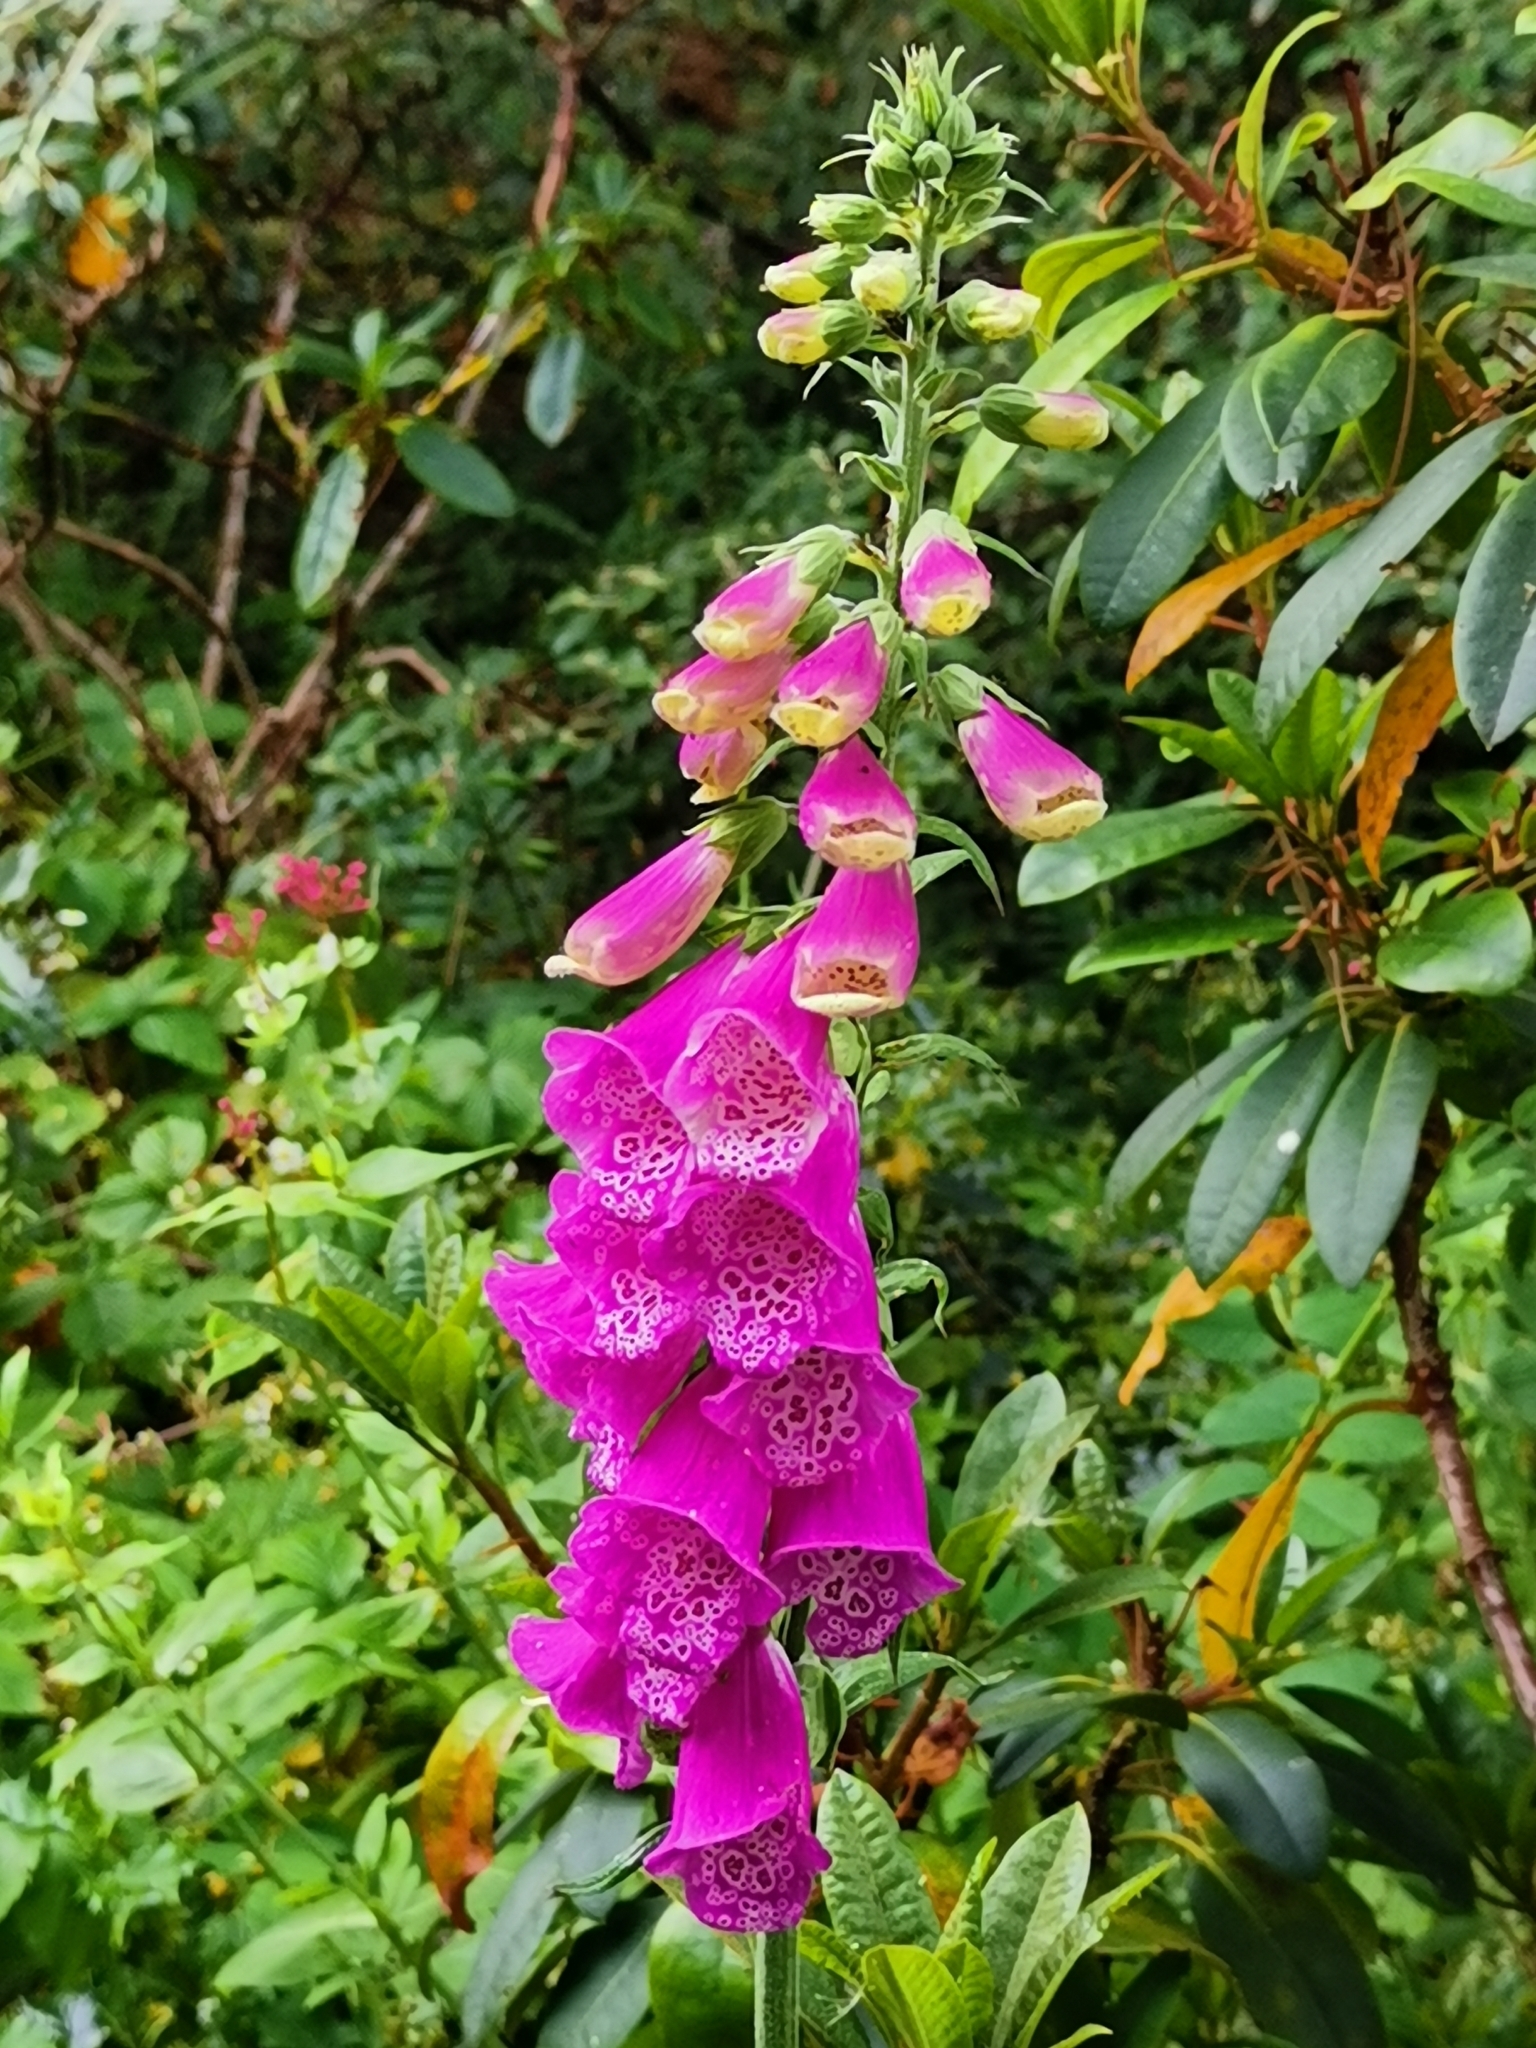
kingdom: Plantae
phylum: Tracheophyta
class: Magnoliopsida
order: Lamiales
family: Plantaginaceae
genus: Digitalis
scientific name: Digitalis purpurea
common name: Foxglove
